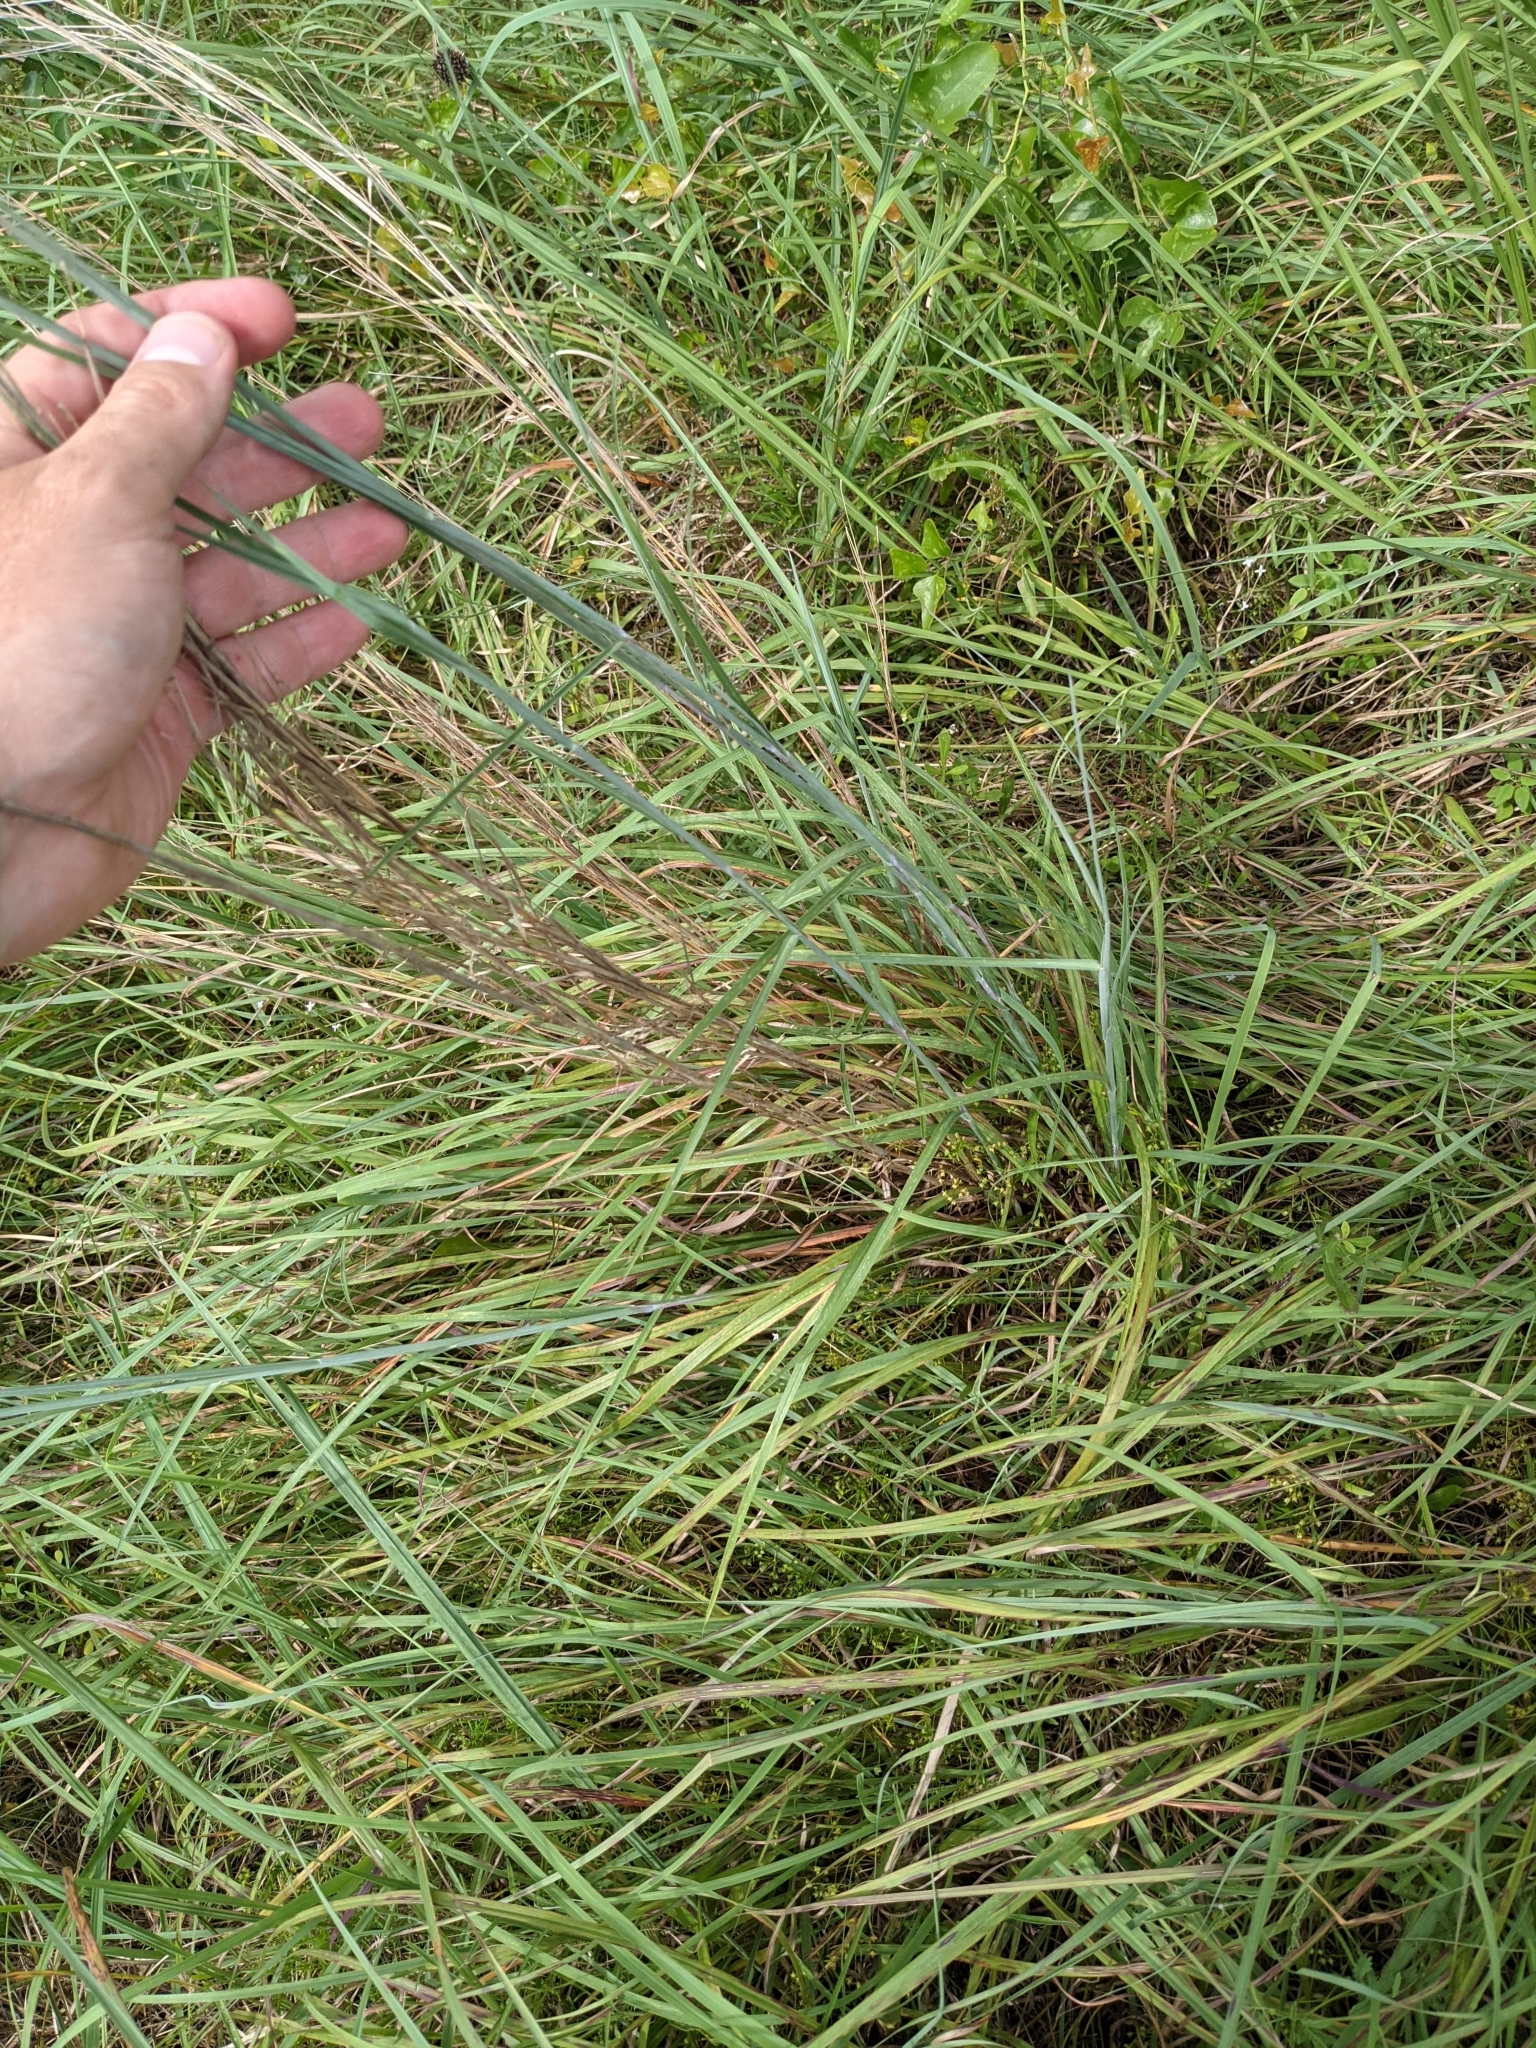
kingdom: Plantae
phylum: Tracheophyta
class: Liliopsida
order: Poales
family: Poaceae
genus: Schizachyrium
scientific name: Schizachyrium scoparium
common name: Little bluestem
